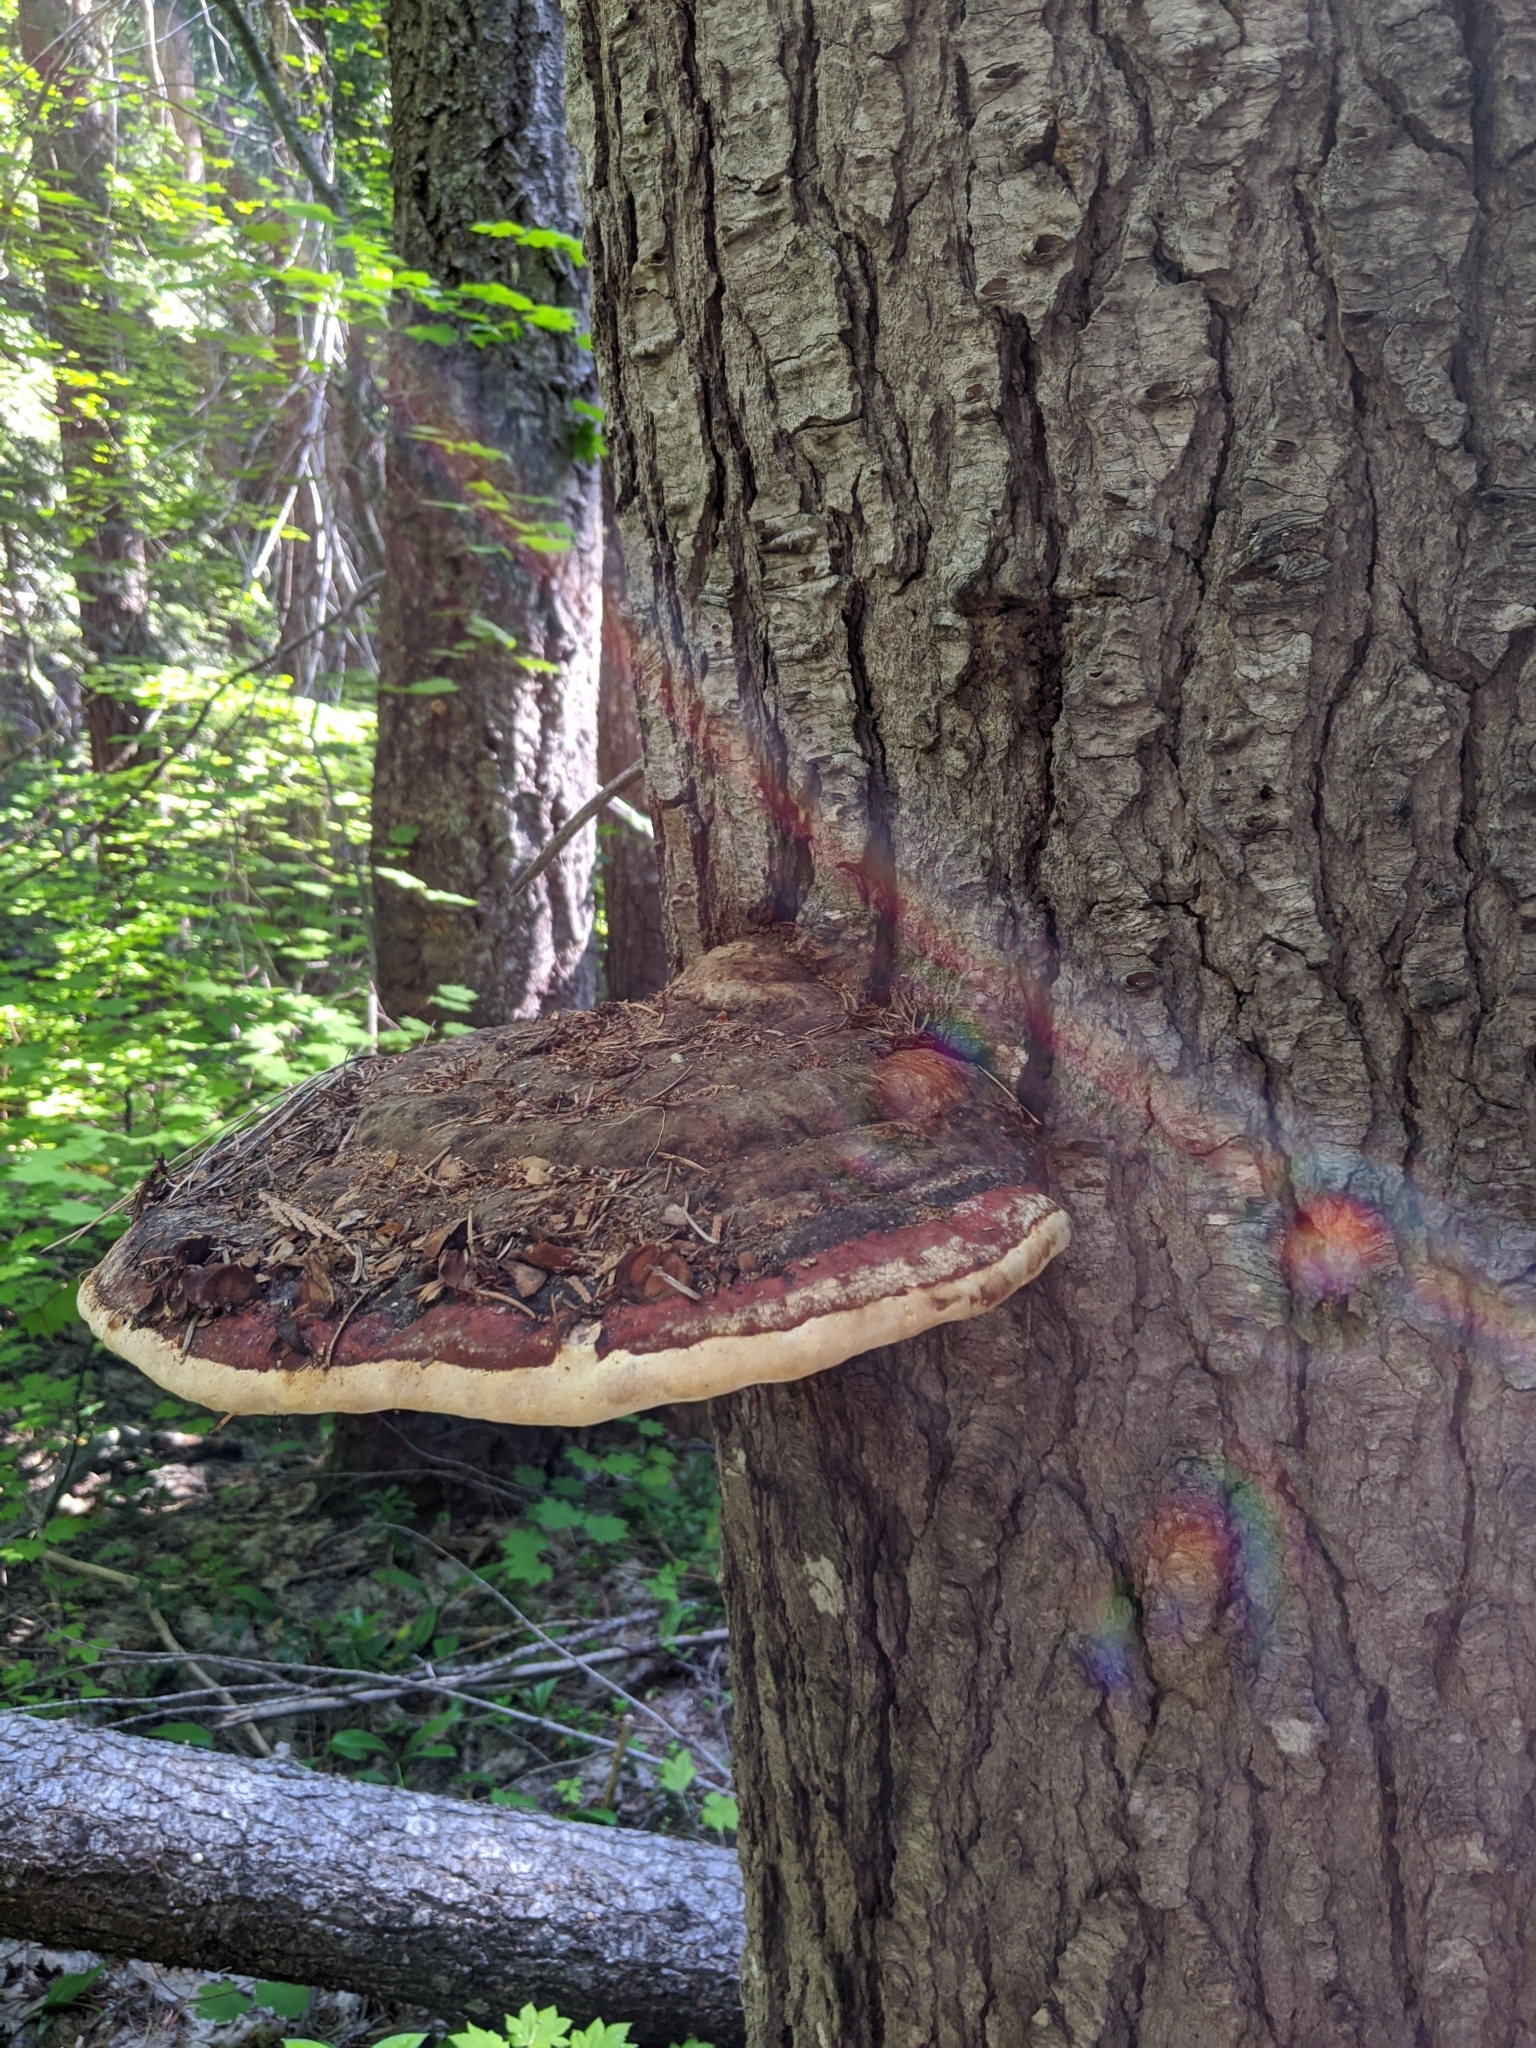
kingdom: Fungi
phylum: Basidiomycota
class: Agaricomycetes
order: Polyporales
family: Fomitopsidaceae
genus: Fomitopsis
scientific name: Fomitopsis mounceae
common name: Northern red belt
